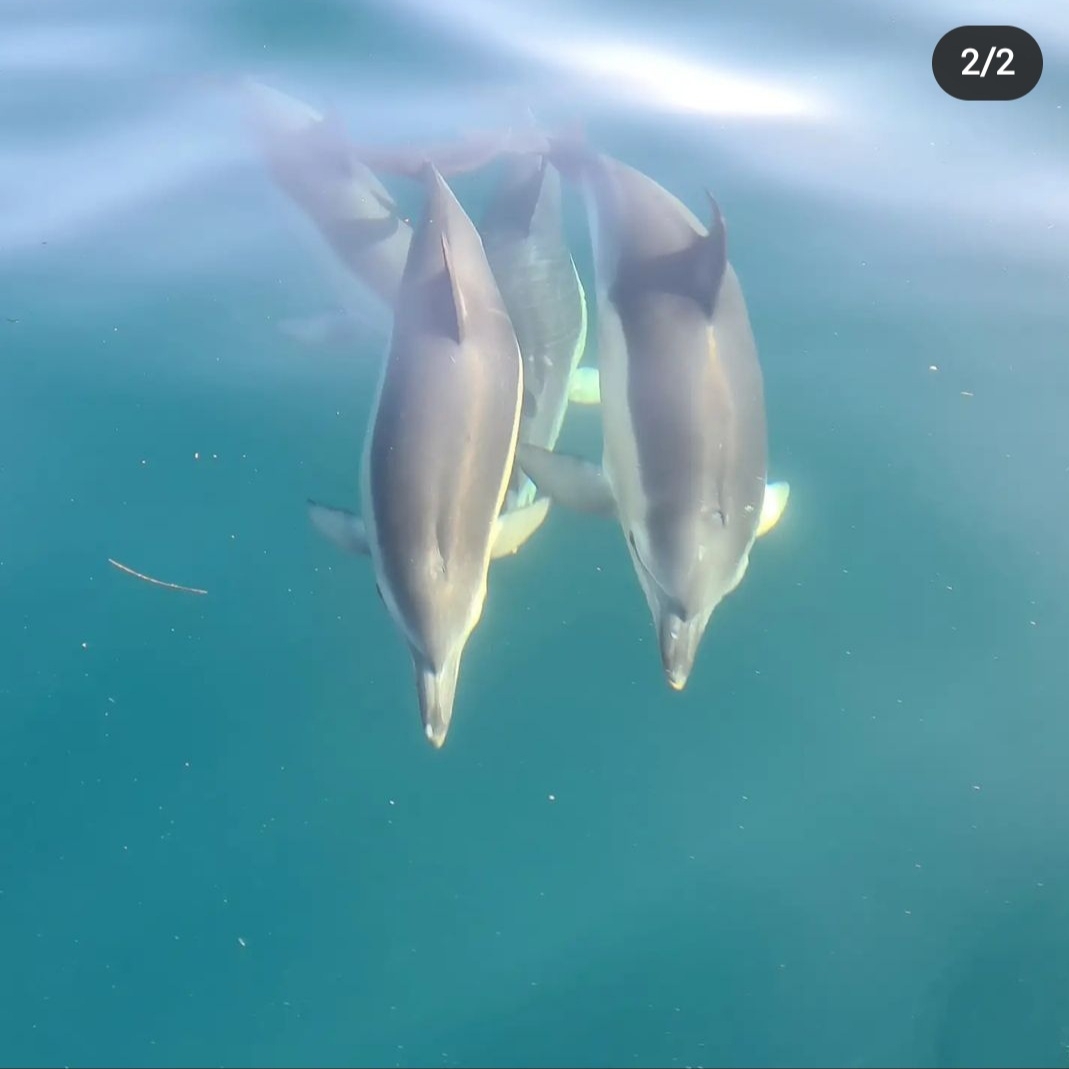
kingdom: Animalia
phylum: Chordata
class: Mammalia
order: Cetacea
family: Delphinidae
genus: Delphinus
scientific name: Delphinus delphis
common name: Common dolphin
